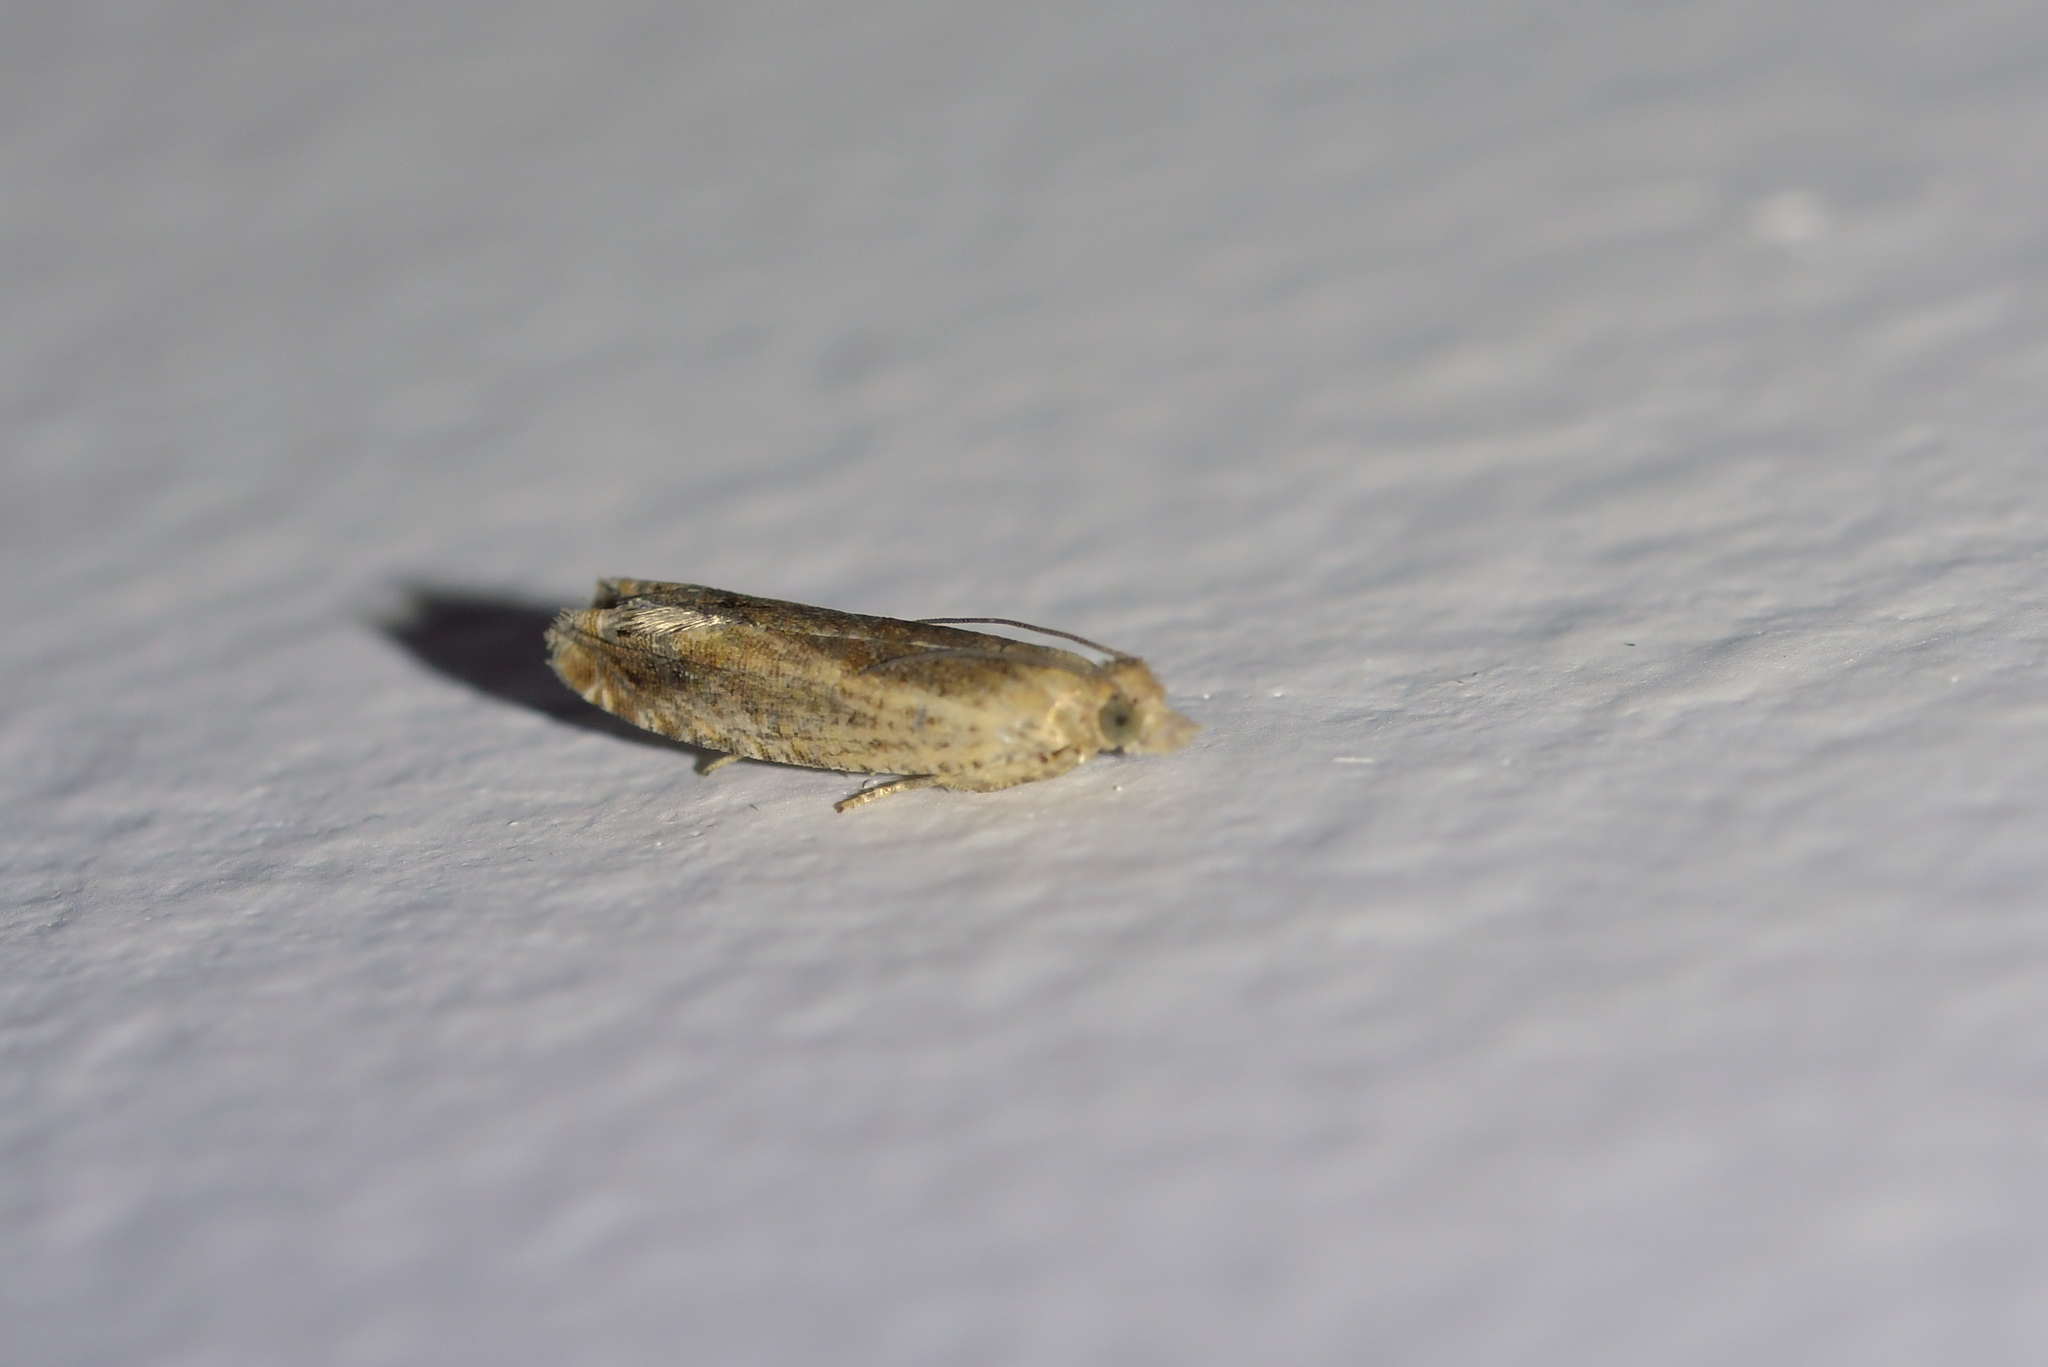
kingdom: Animalia
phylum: Arthropoda
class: Insecta
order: Lepidoptera
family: Tortricidae
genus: Crocidosema
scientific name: Crocidosema plebejana
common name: Southern bell
